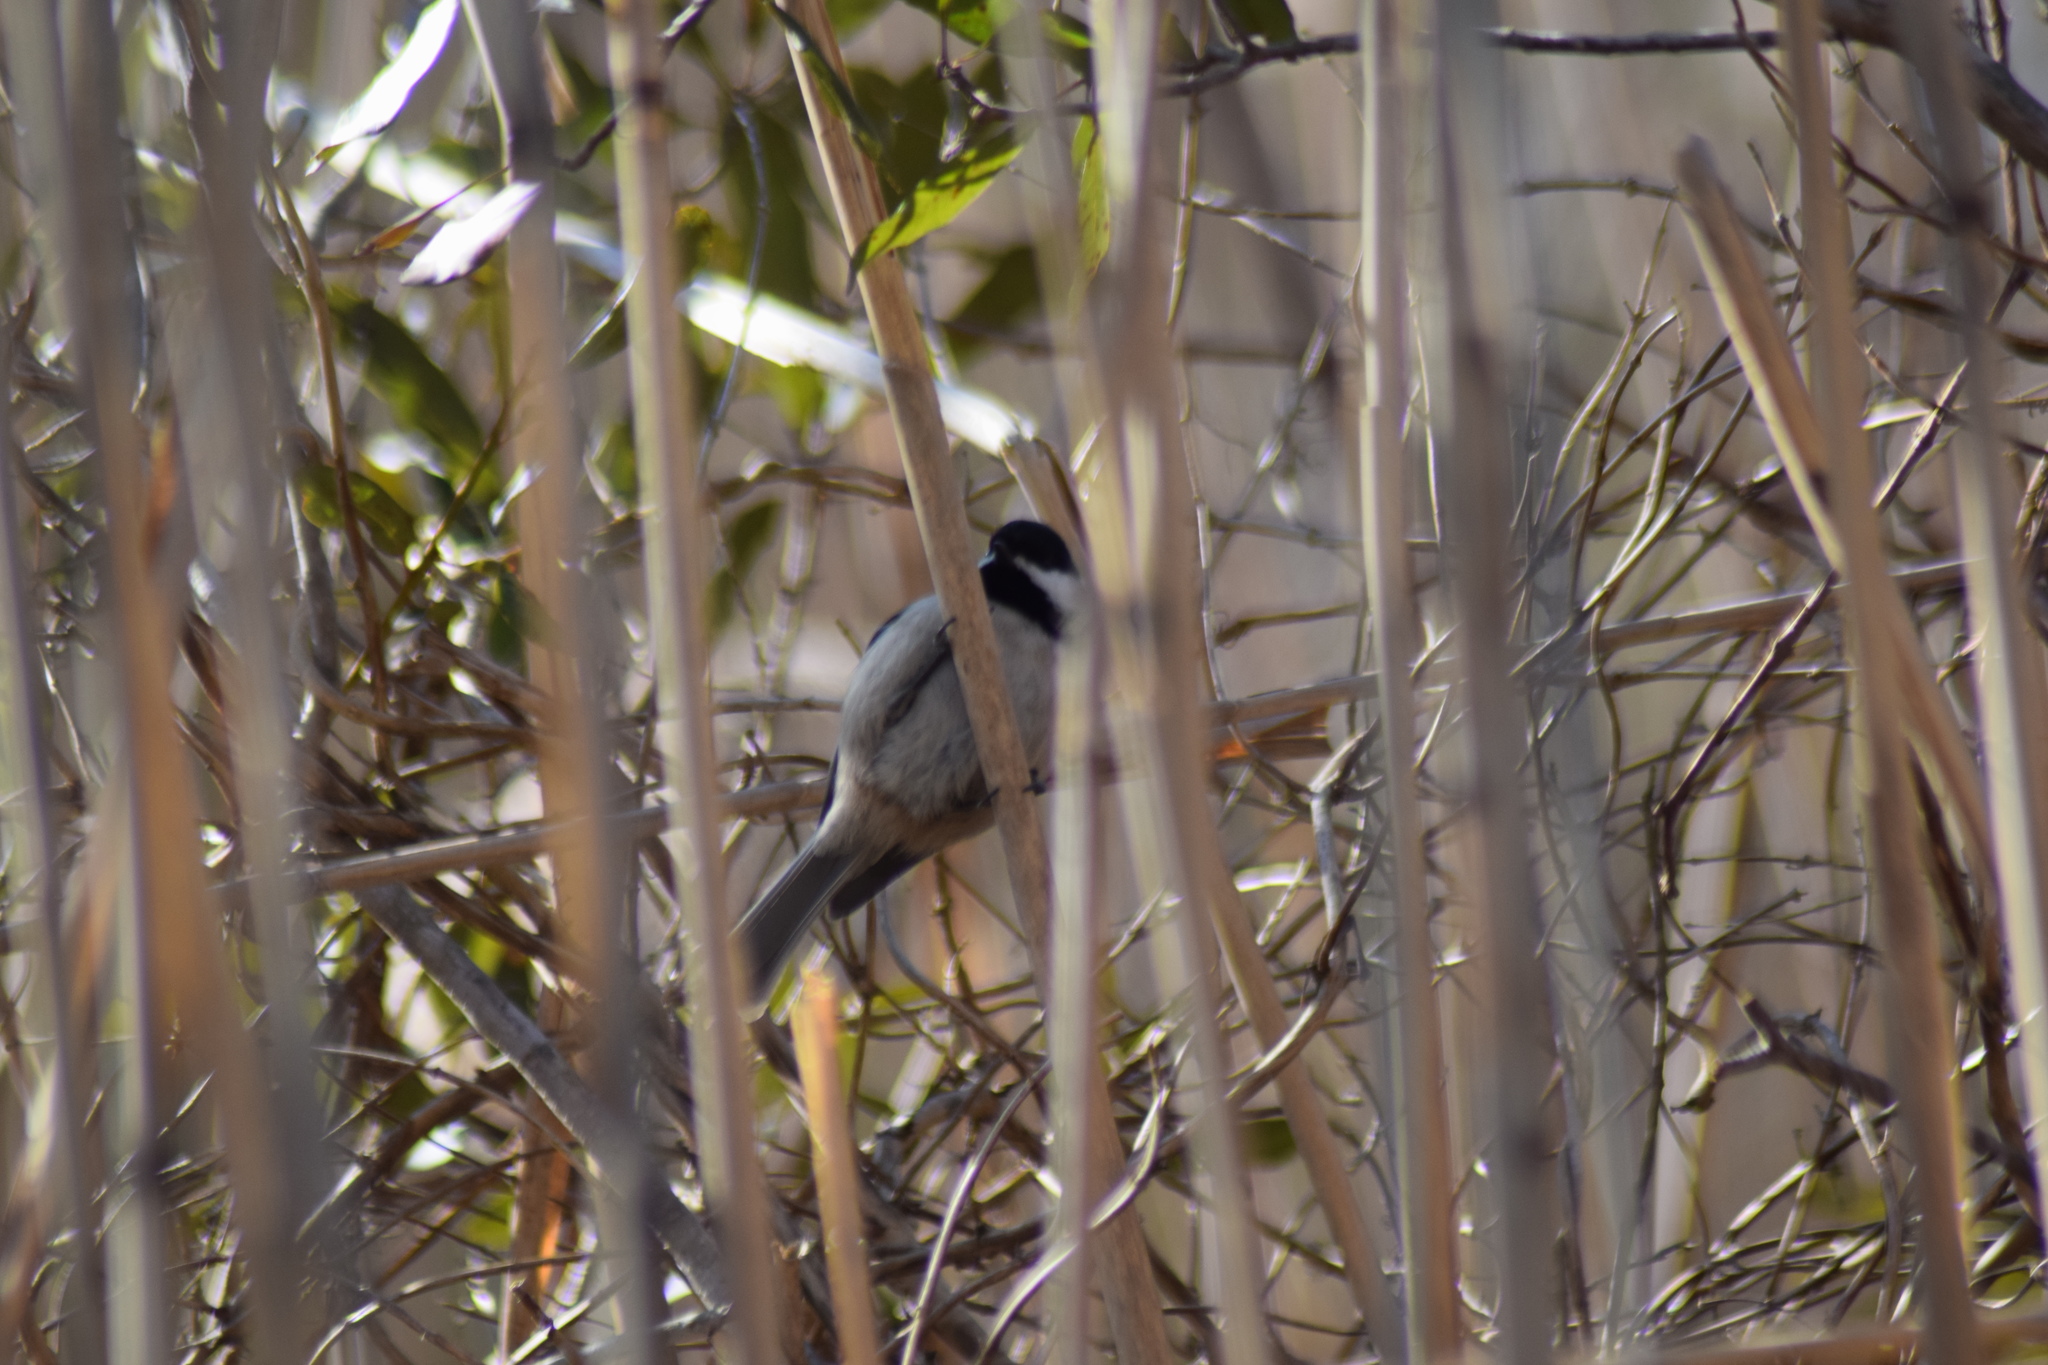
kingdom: Animalia
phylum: Chordata
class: Aves
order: Passeriformes
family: Paridae
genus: Poecile
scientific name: Poecile carolinensis
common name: Carolina chickadee
